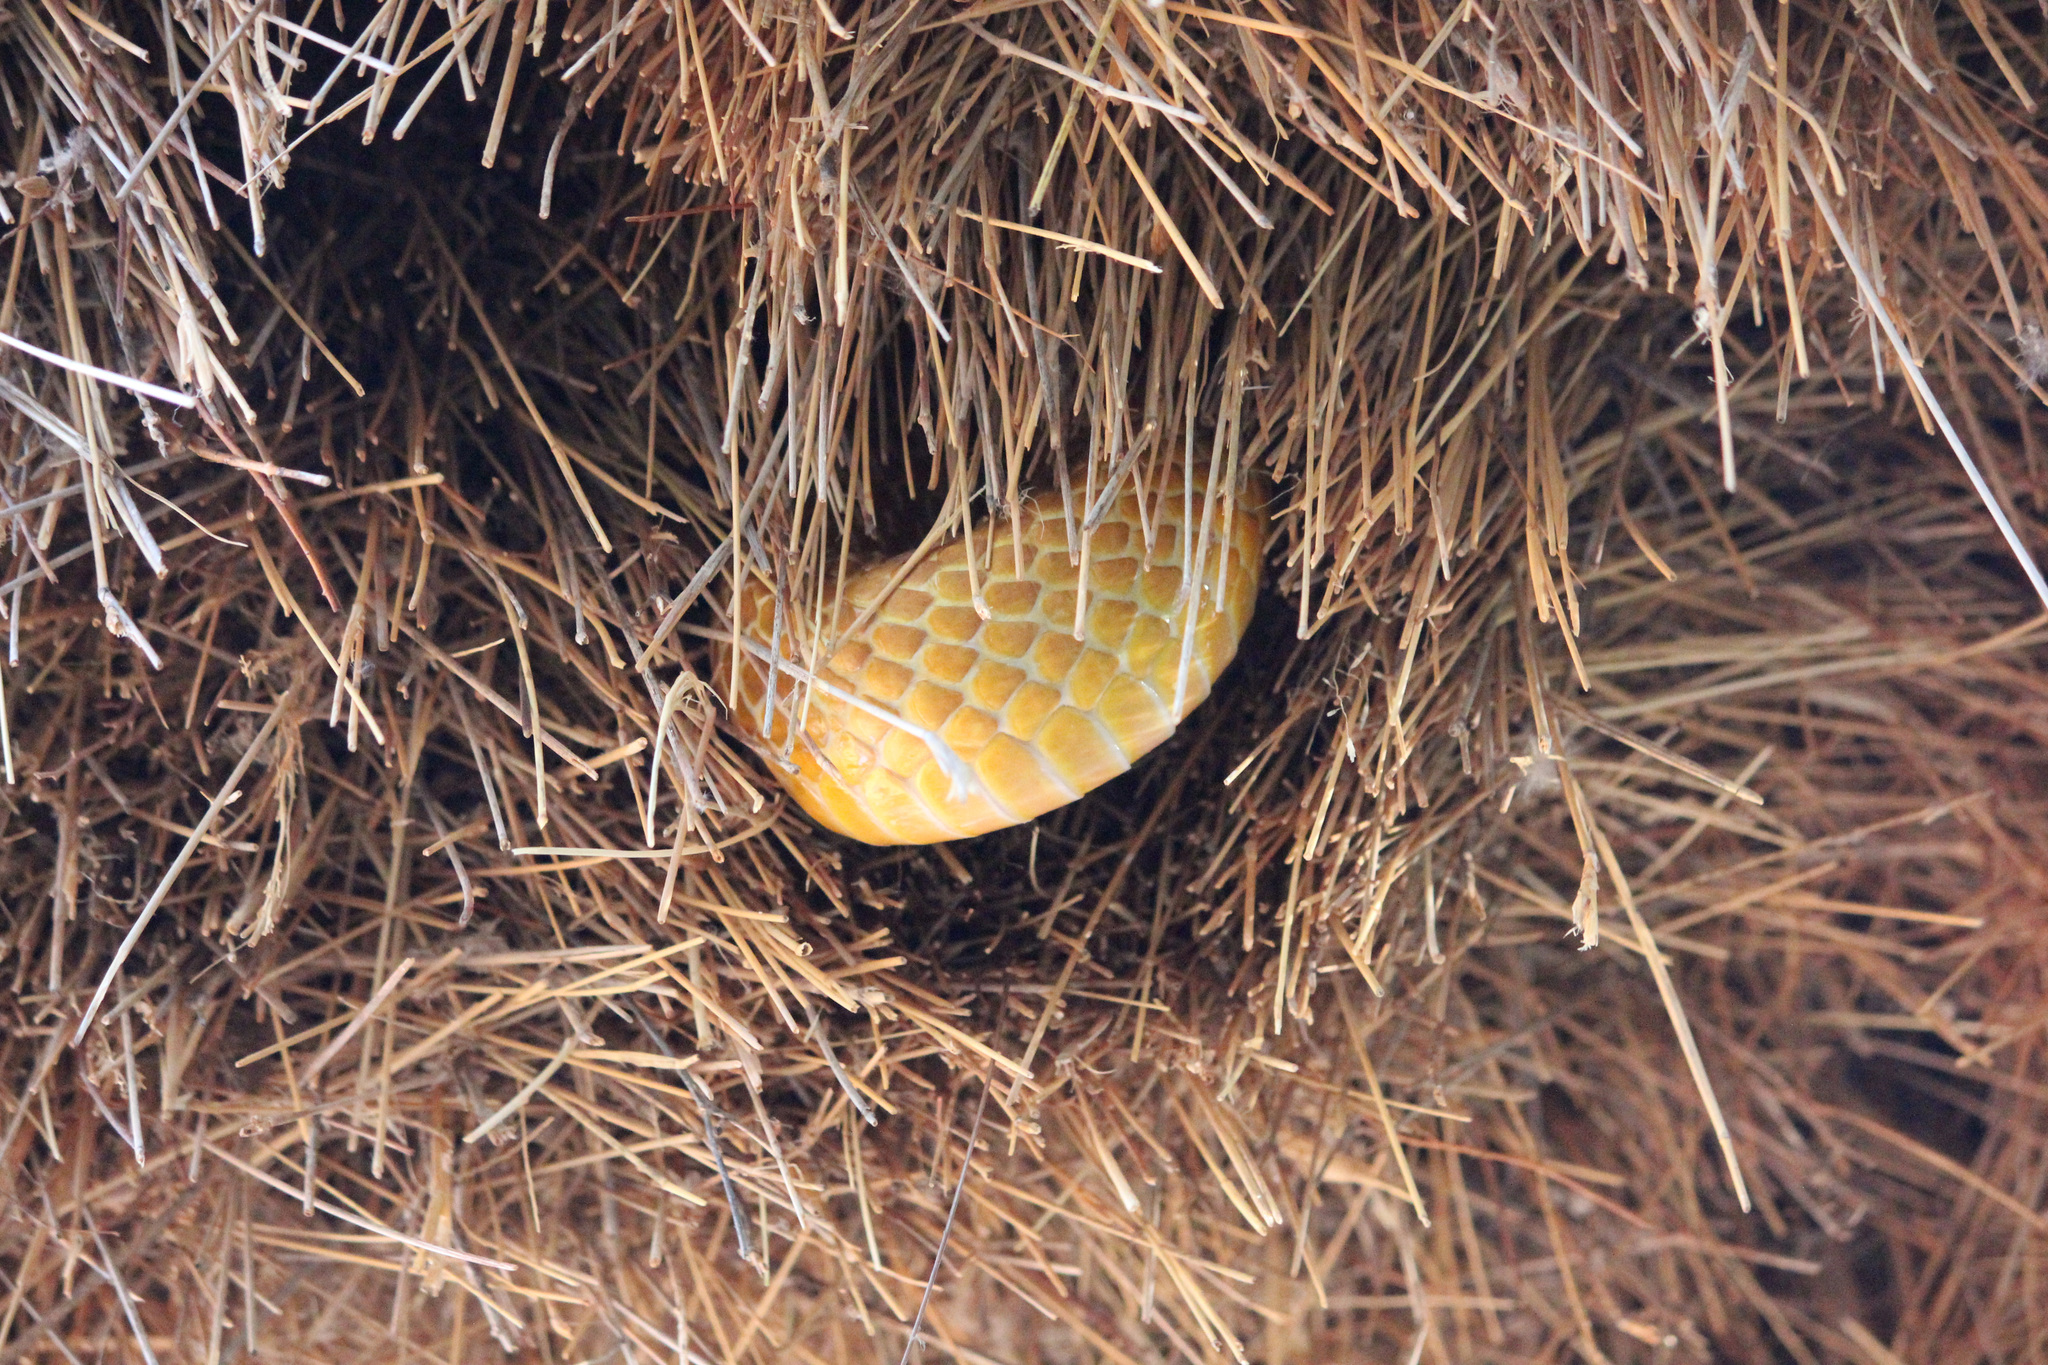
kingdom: Animalia
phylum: Chordata
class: Squamata
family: Elapidae
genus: Naja
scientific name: Naja nivea
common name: Cape cobra
